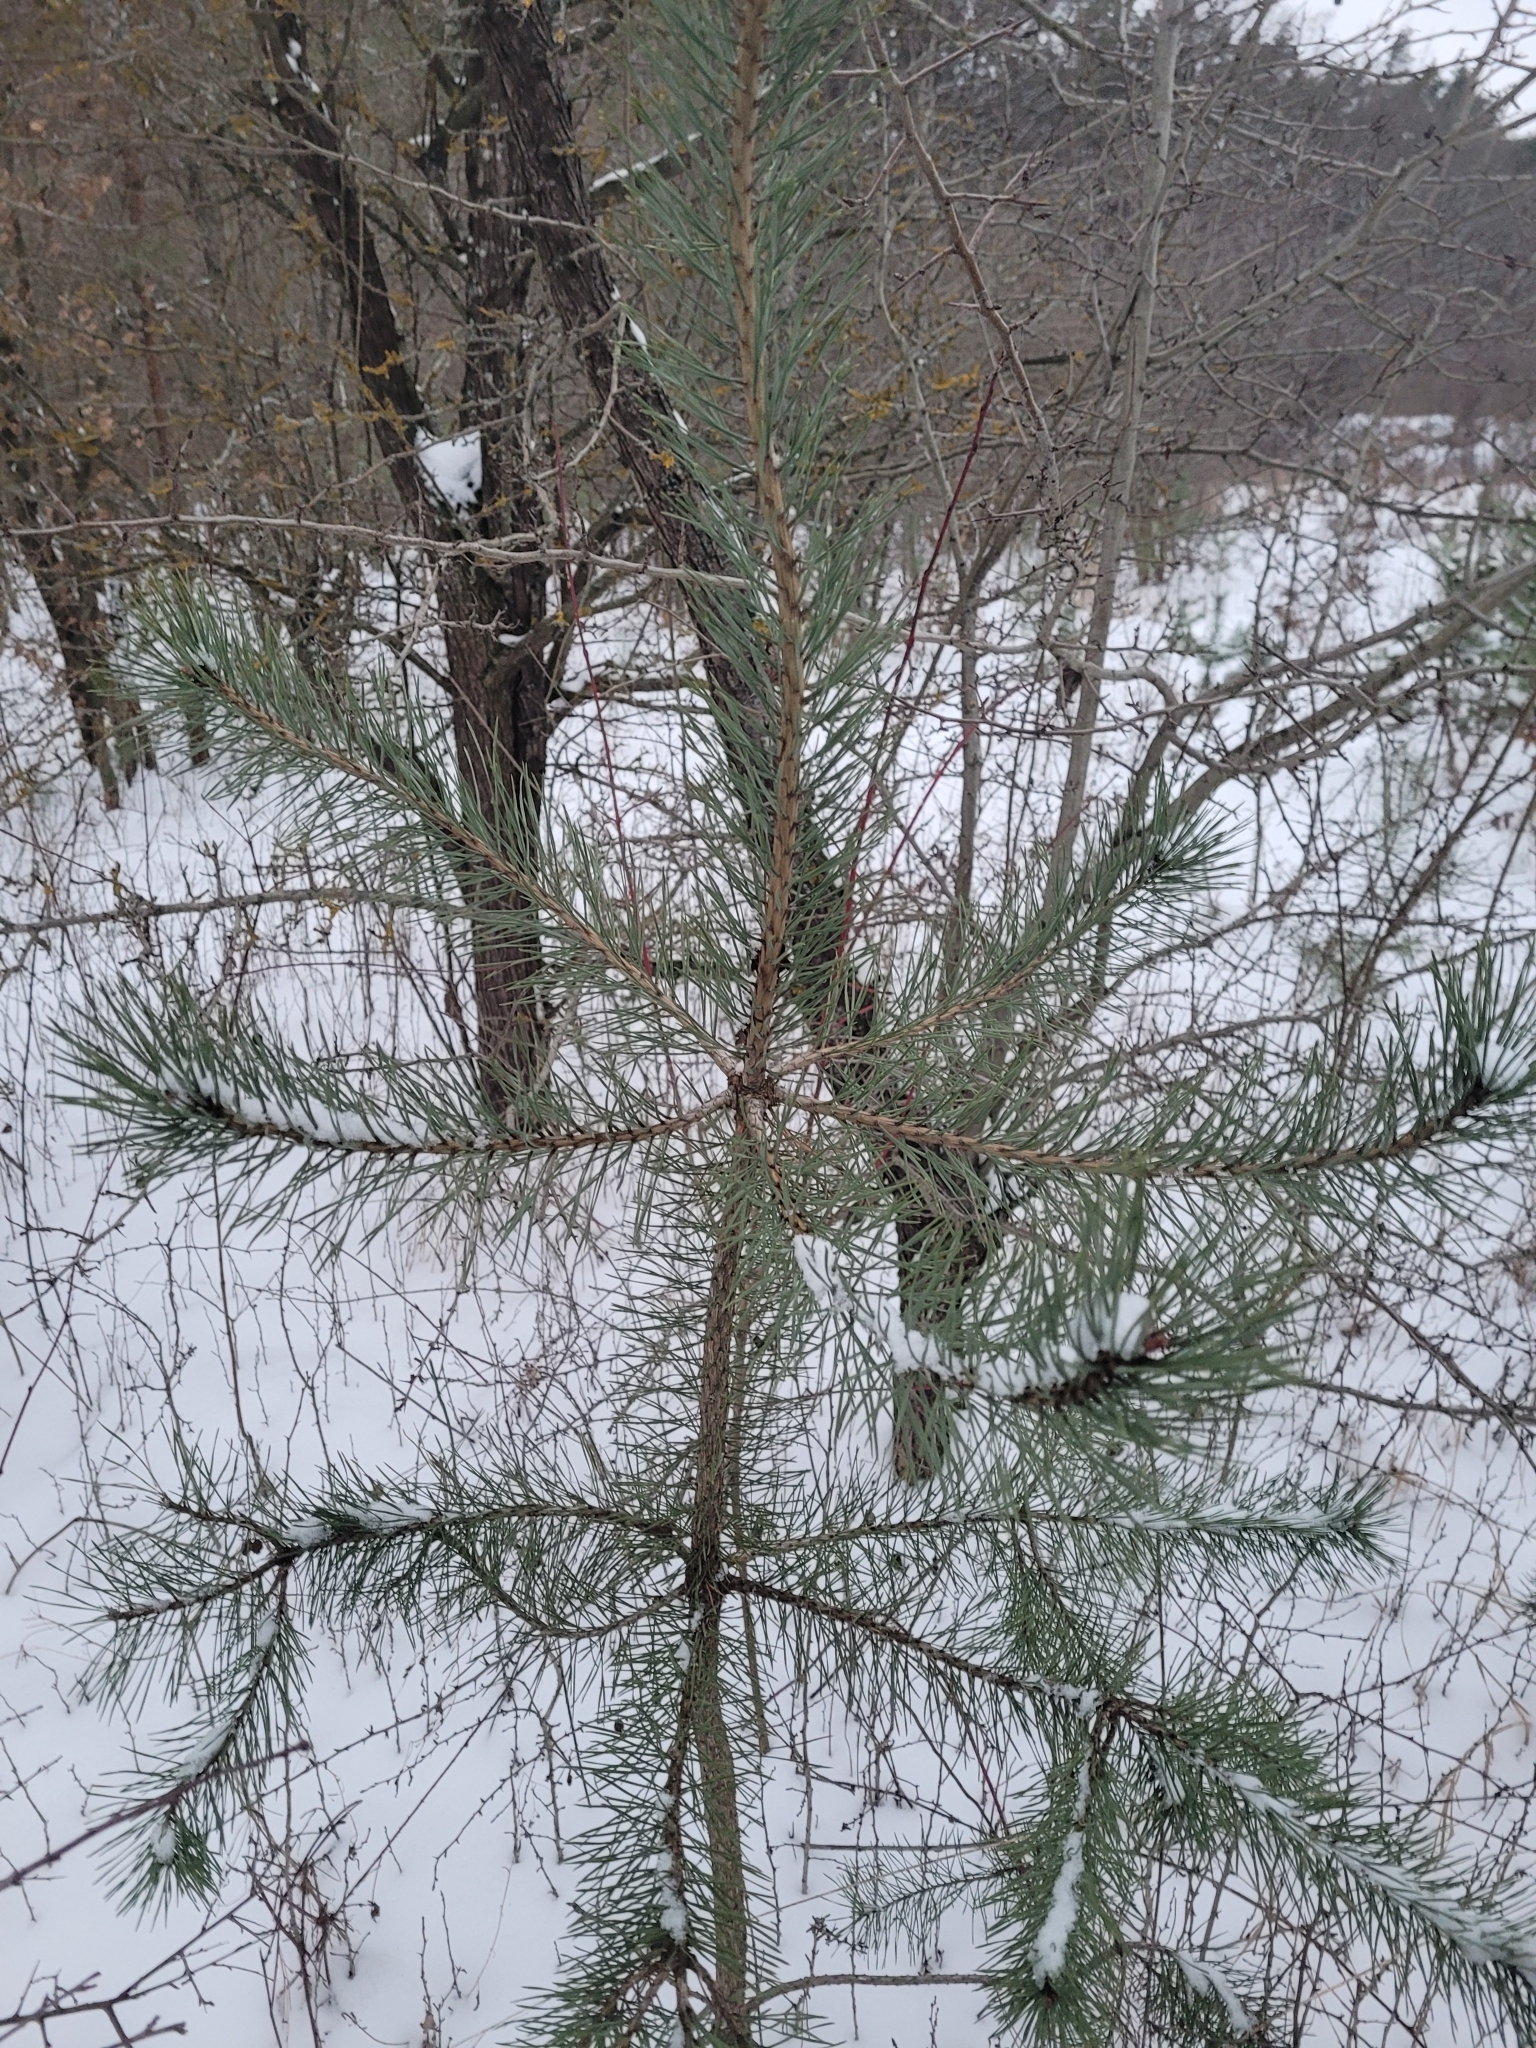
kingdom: Plantae
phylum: Tracheophyta
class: Pinopsida
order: Pinales
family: Pinaceae
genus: Pinus
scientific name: Pinus sylvestris
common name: Scots pine
